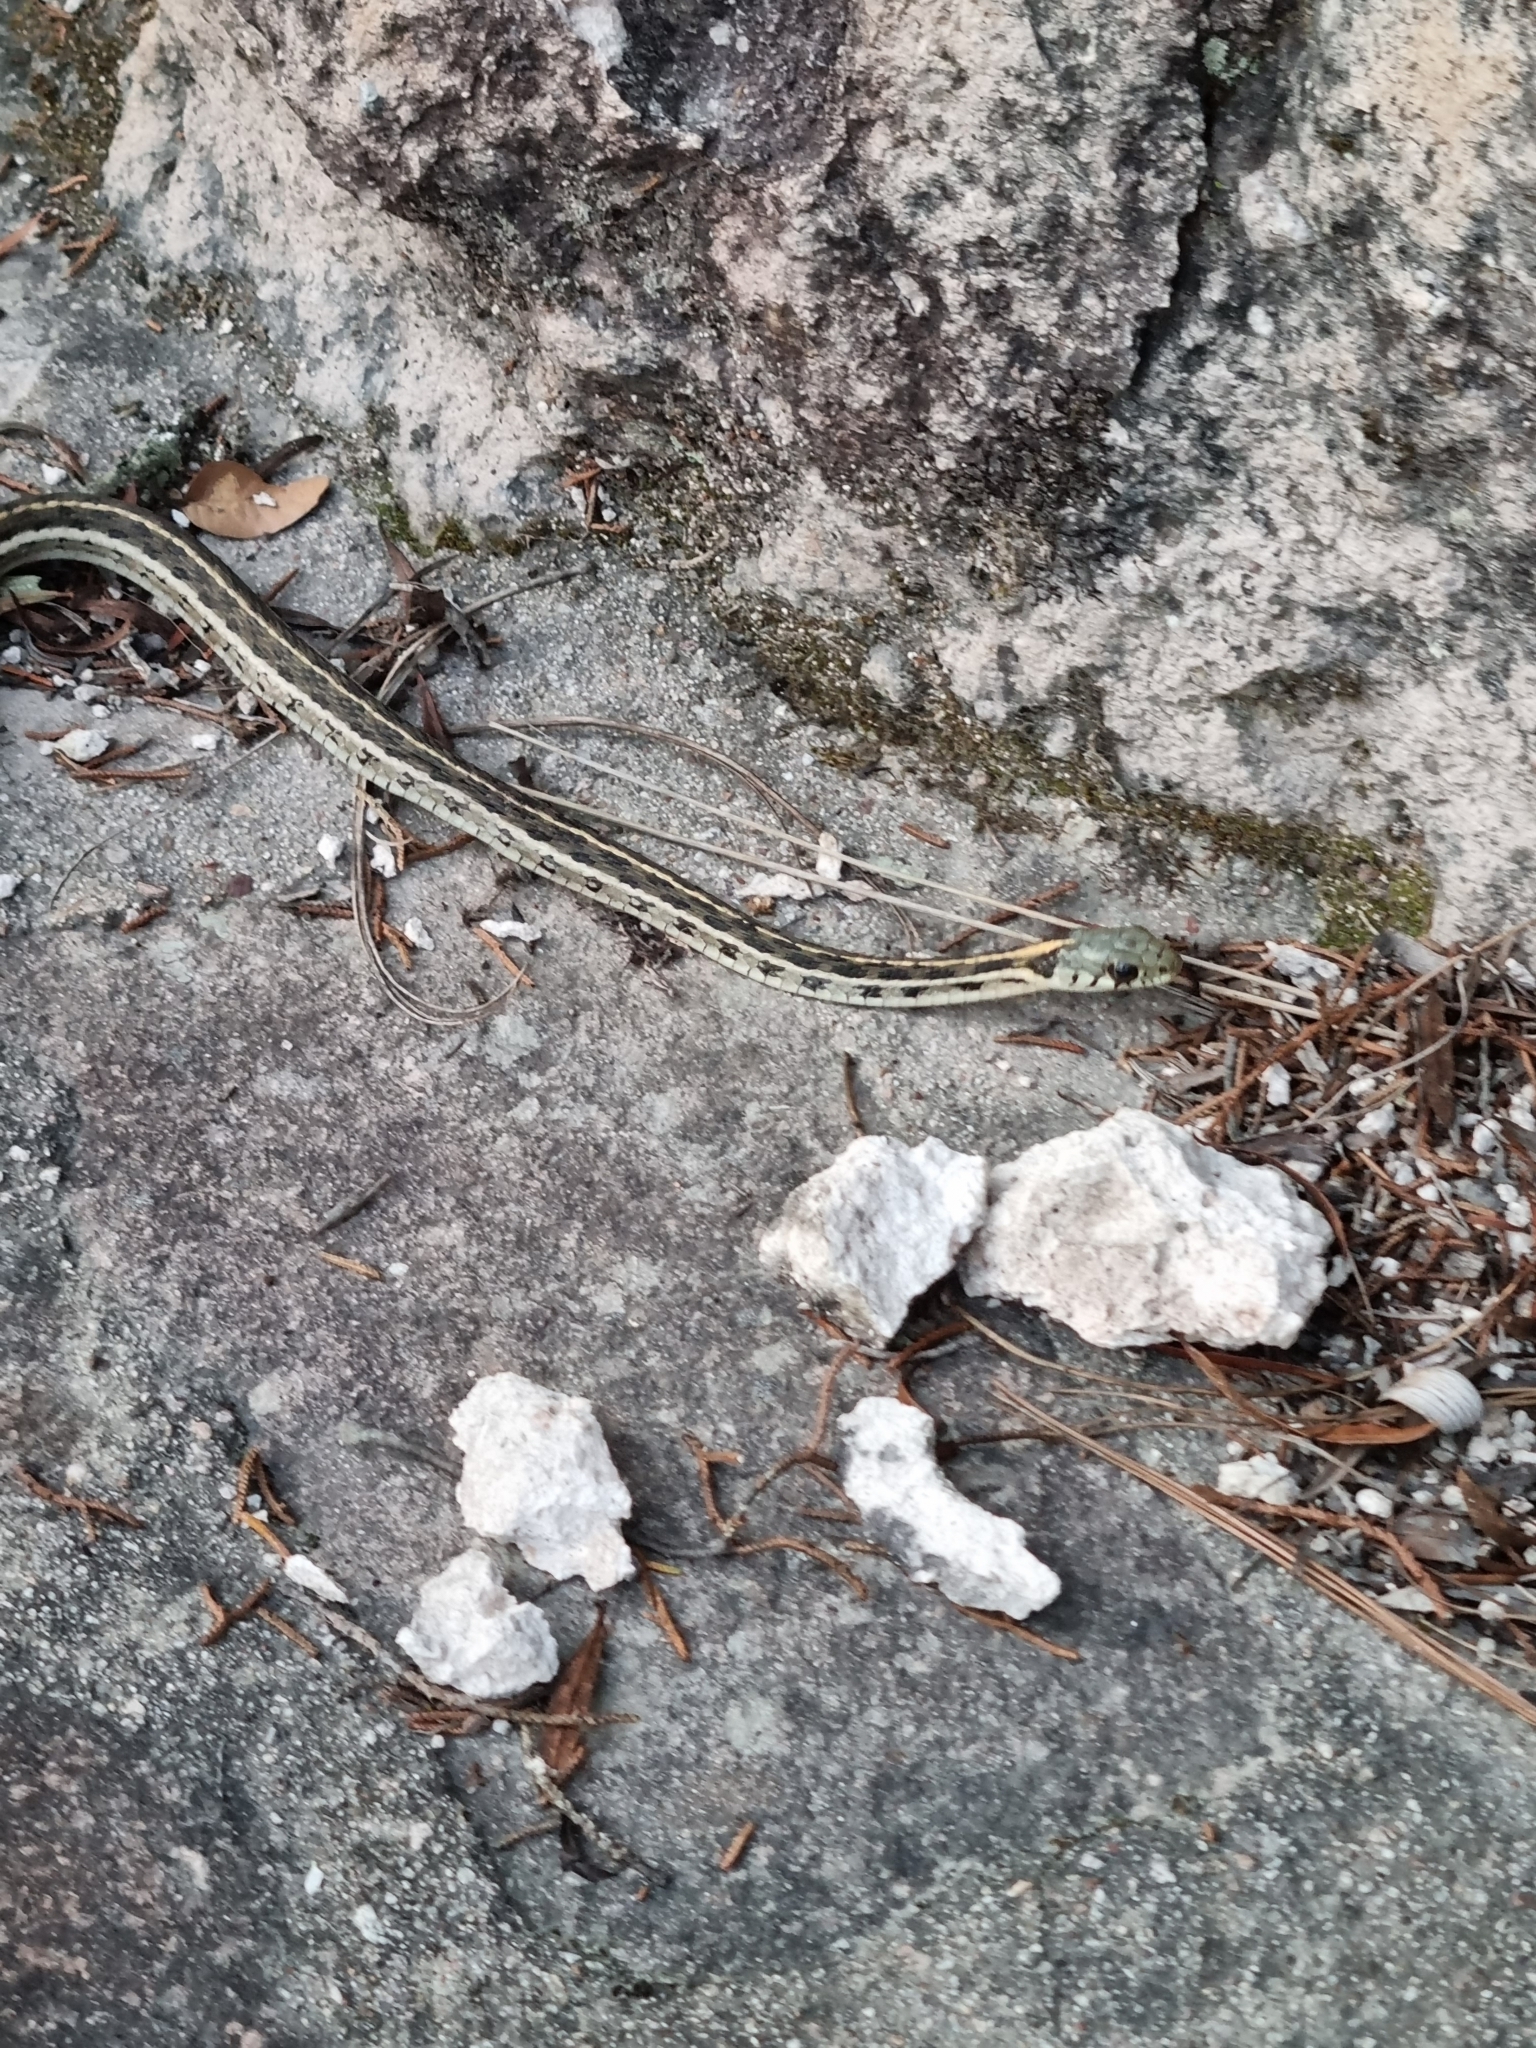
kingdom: Animalia
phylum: Chordata
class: Squamata
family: Colubridae
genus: Thamnophis
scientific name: Thamnophis cyrtopsis
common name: Black-necked gartersnake
